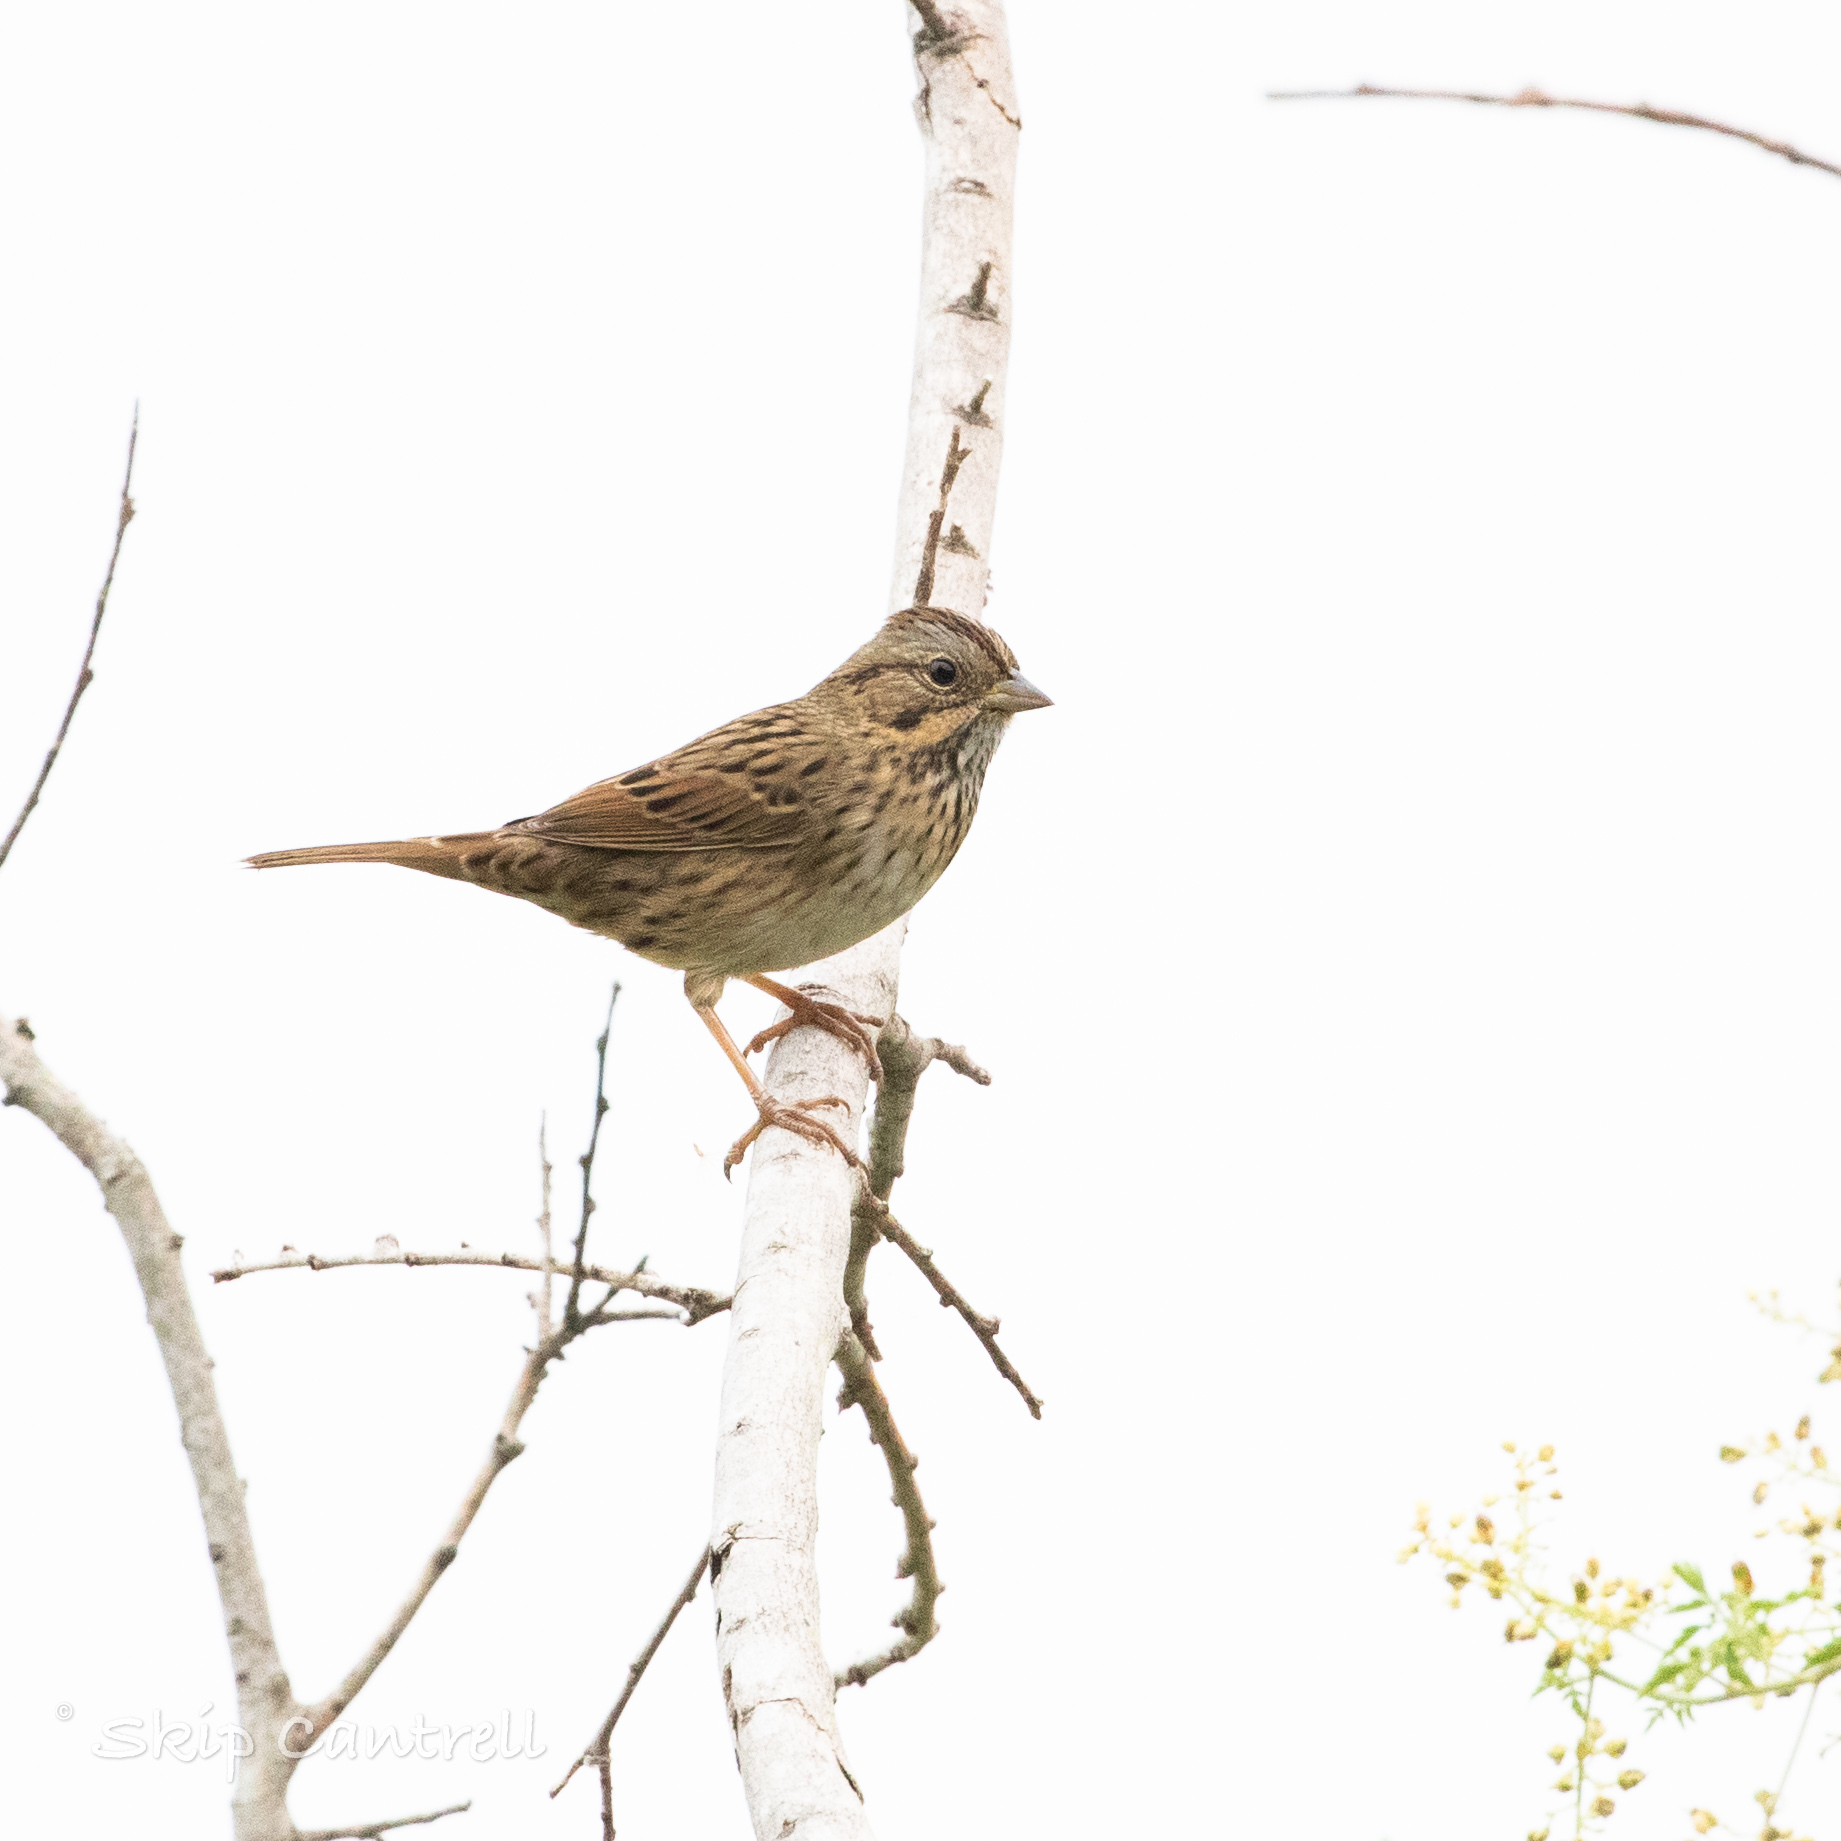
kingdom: Animalia
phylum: Chordata
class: Aves
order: Passeriformes
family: Passerellidae
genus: Melospiza
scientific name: Melospiza lincolnii
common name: Lincoln's sparrow
